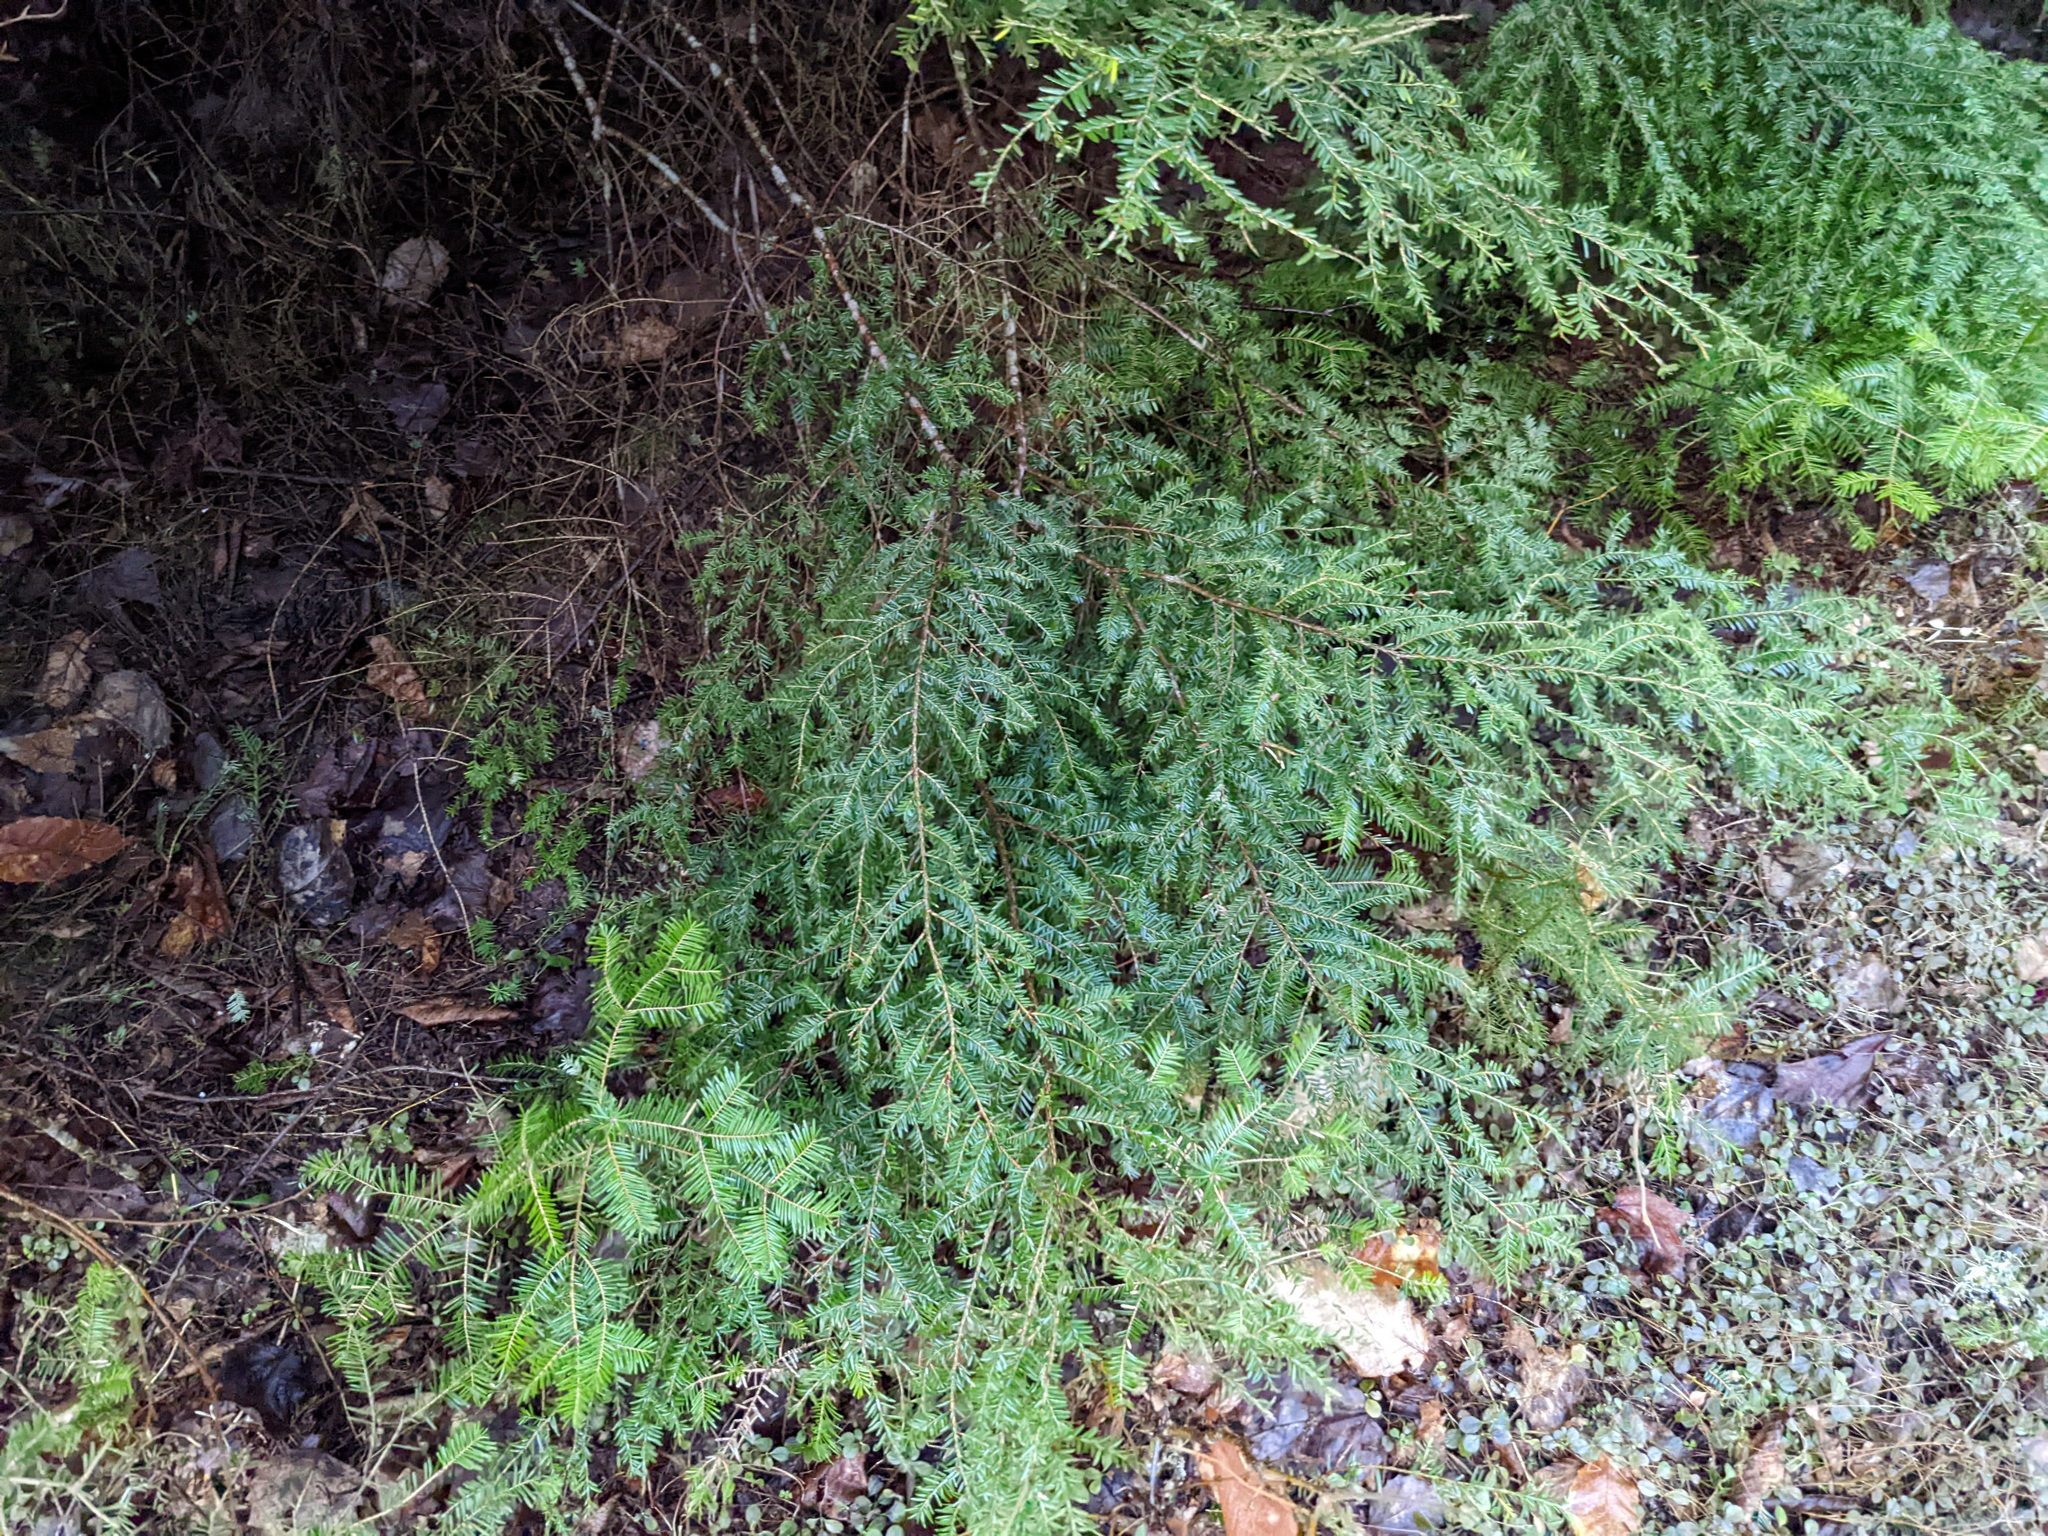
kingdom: Plantae
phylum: Tracheophyta
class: Pinopsida
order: Pinales
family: Pinaceae
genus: Tsuga
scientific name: Tsuga canadensis
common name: Eastern hemlock
